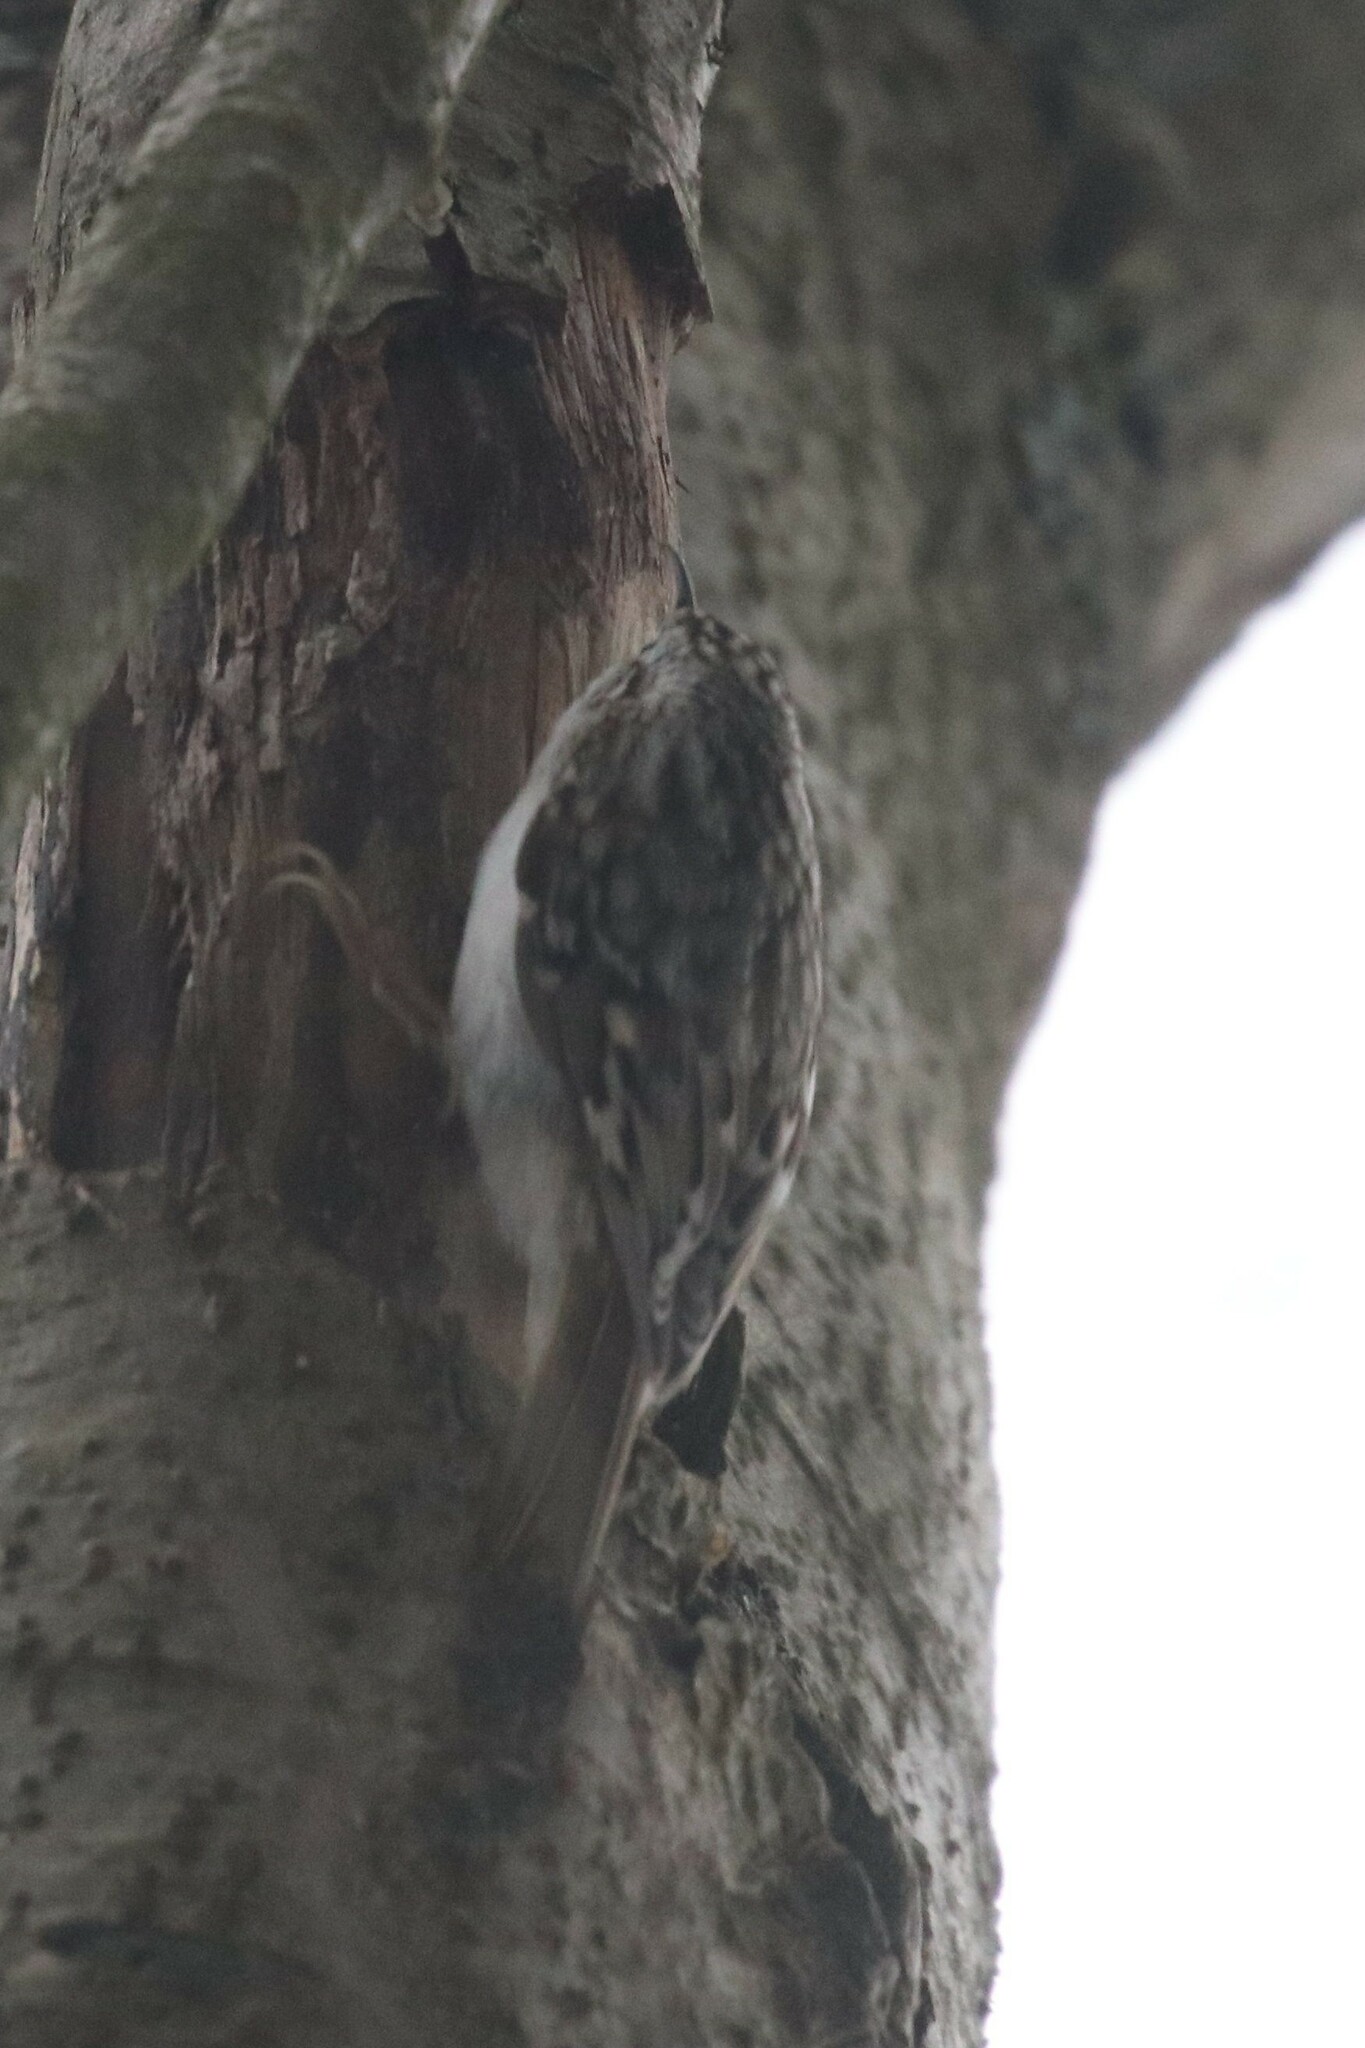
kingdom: Animalia
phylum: Chordata
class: Aves
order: Passeriformes
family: Certhiidae
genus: Certhia
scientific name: Certhia familiaris
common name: Eurasian treecreeper
